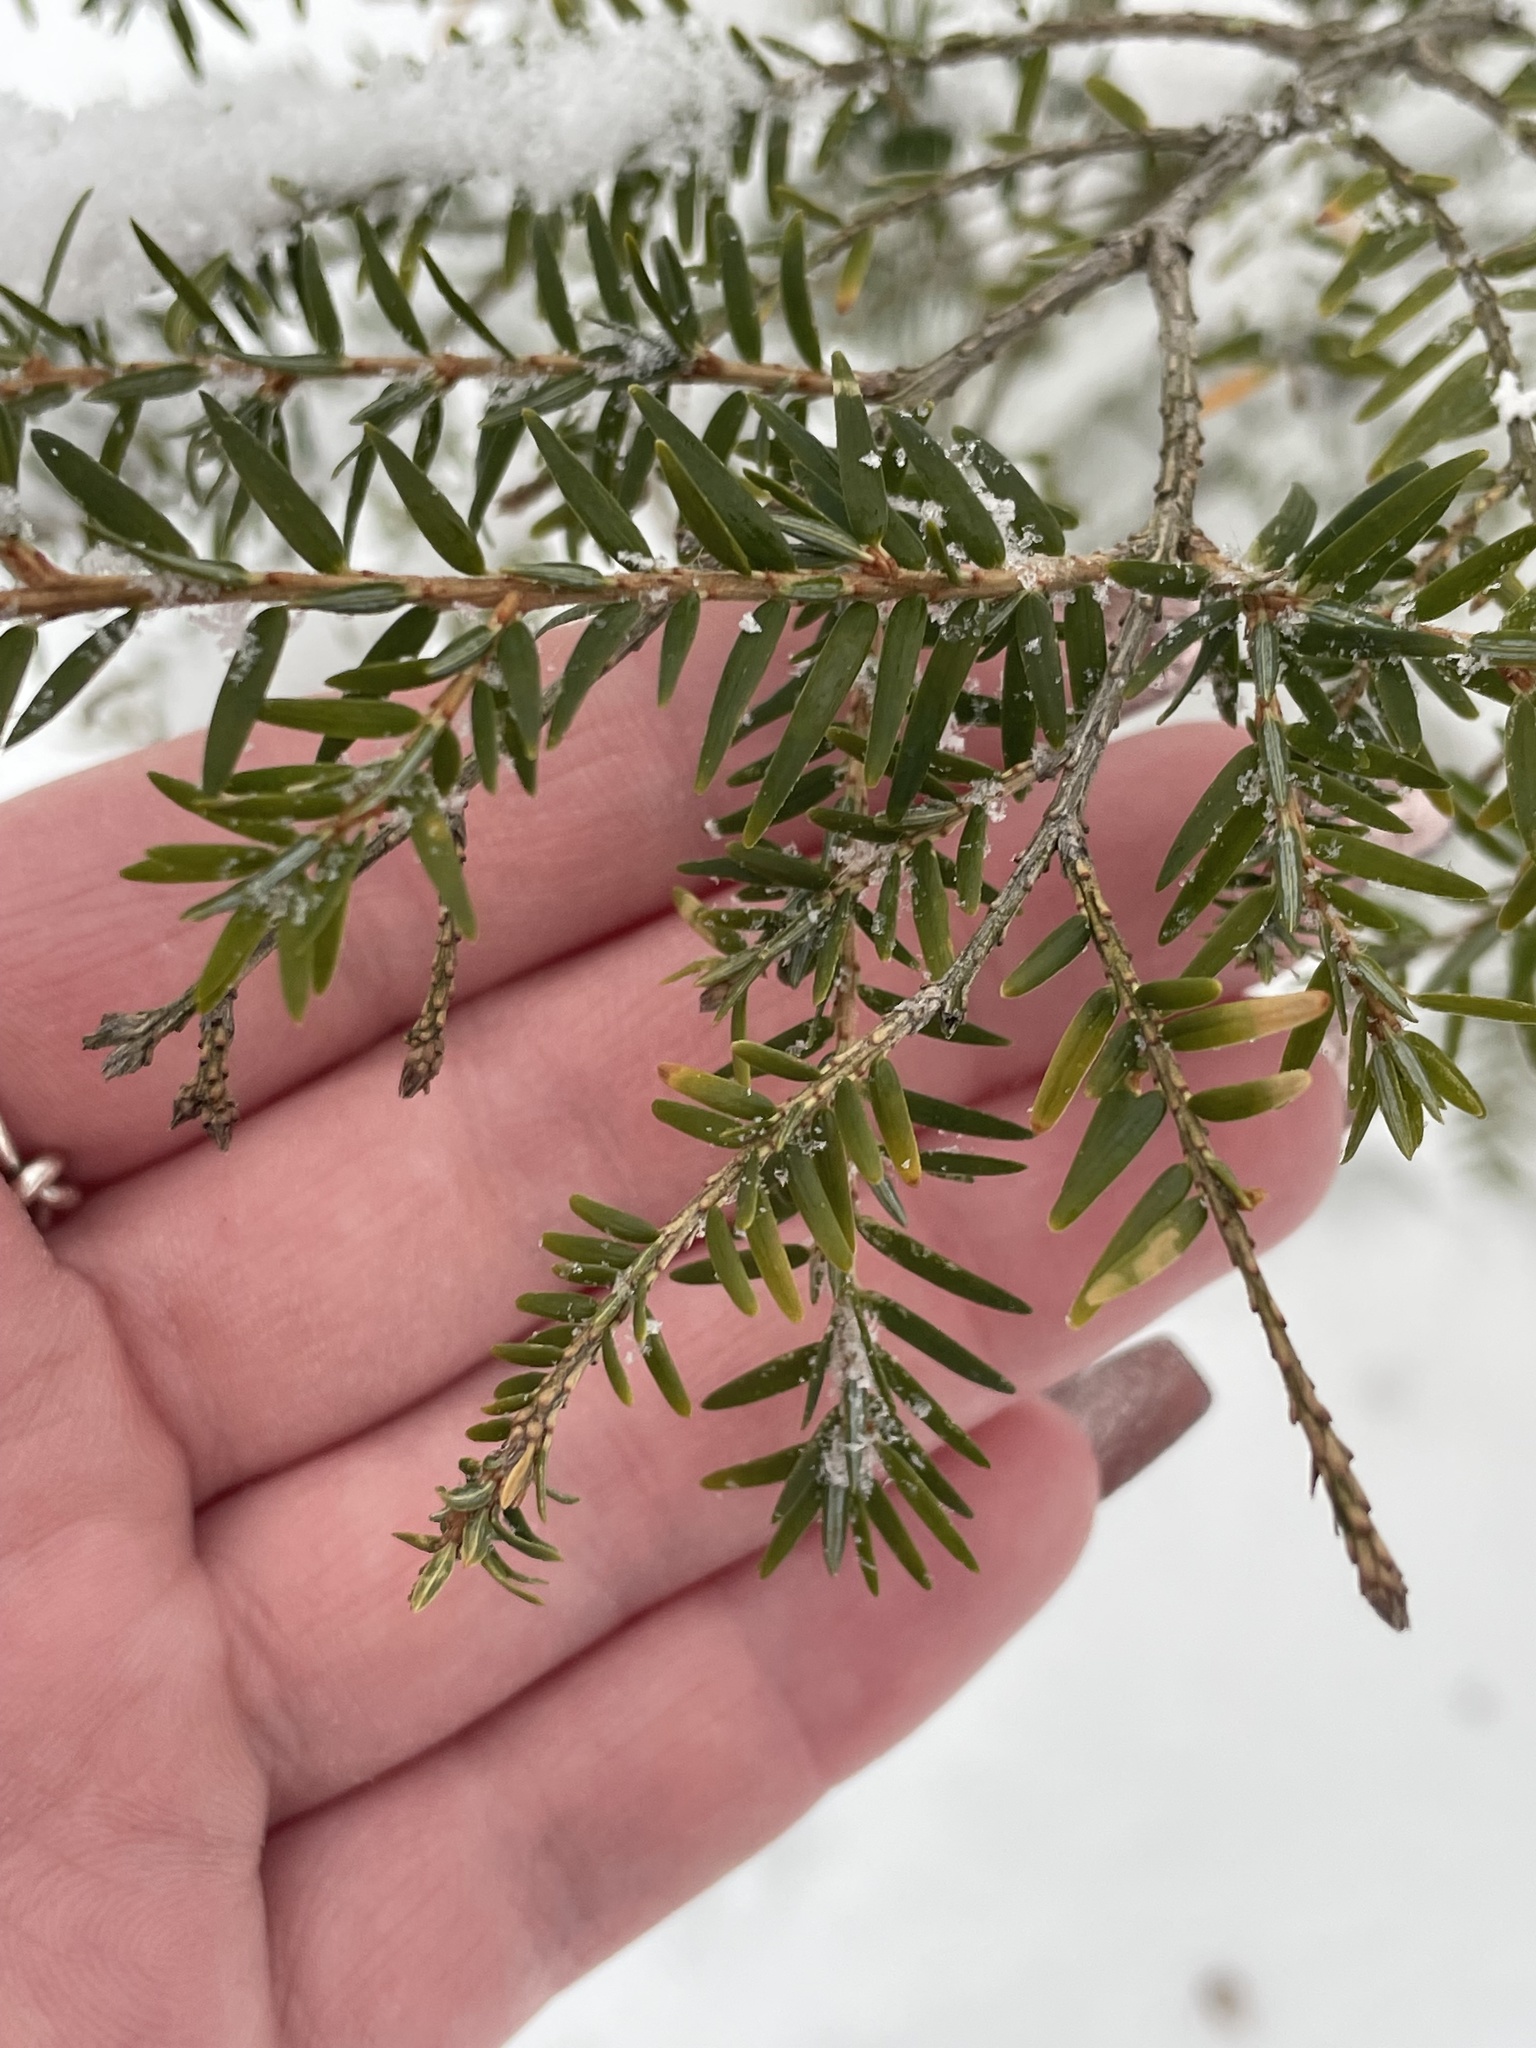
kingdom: Plantae
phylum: Tracheophyta
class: Pinopsida
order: Pinales
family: Pinaceae
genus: Tsuga
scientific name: Tsuga canadensis
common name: Eastern hemlock
